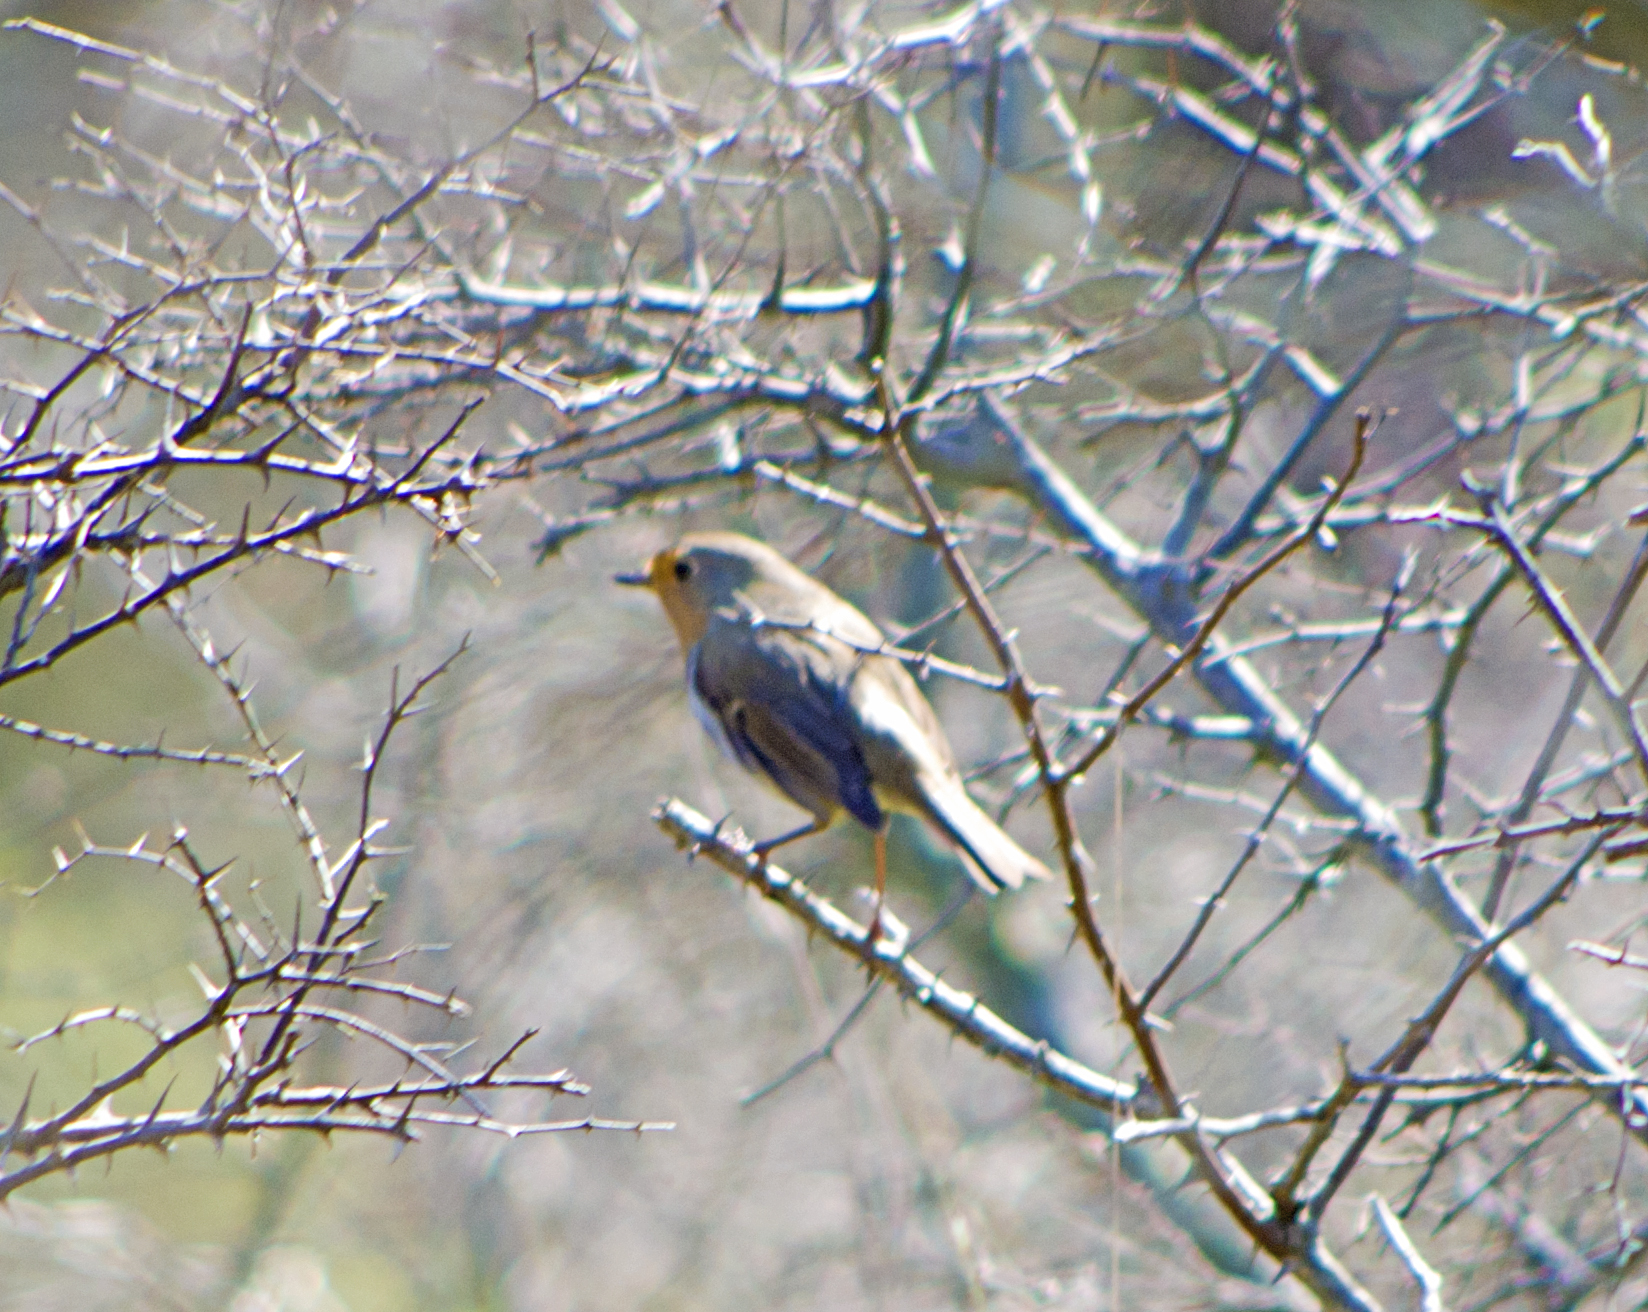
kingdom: Animalia
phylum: Chordata
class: Aves
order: Passeriformes
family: Muscicapidae
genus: Erithacus
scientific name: Erithacus rubecula
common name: European robin
